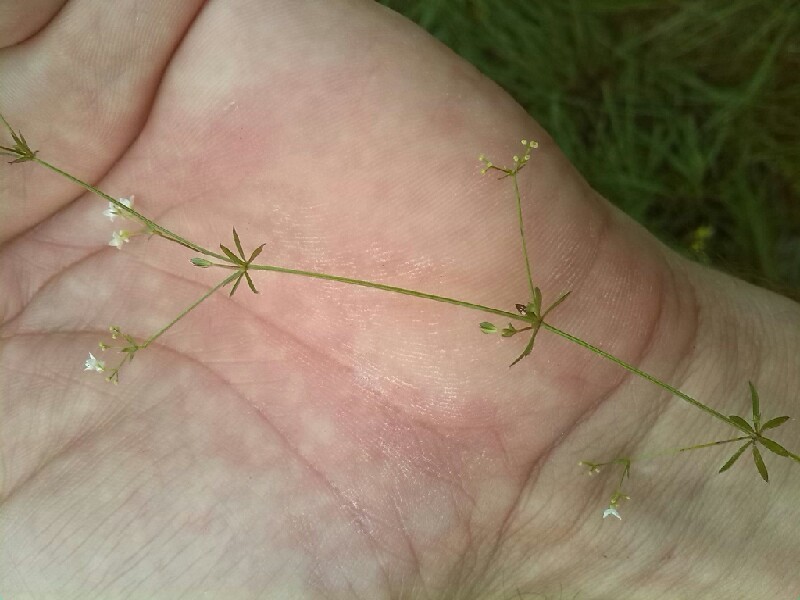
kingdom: Plantae
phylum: Tracheophyta
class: Magnoliopsida
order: Gentianales
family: Rubiaceae
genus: Galium
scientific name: Galium uliginosum
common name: Fen bedstraw
